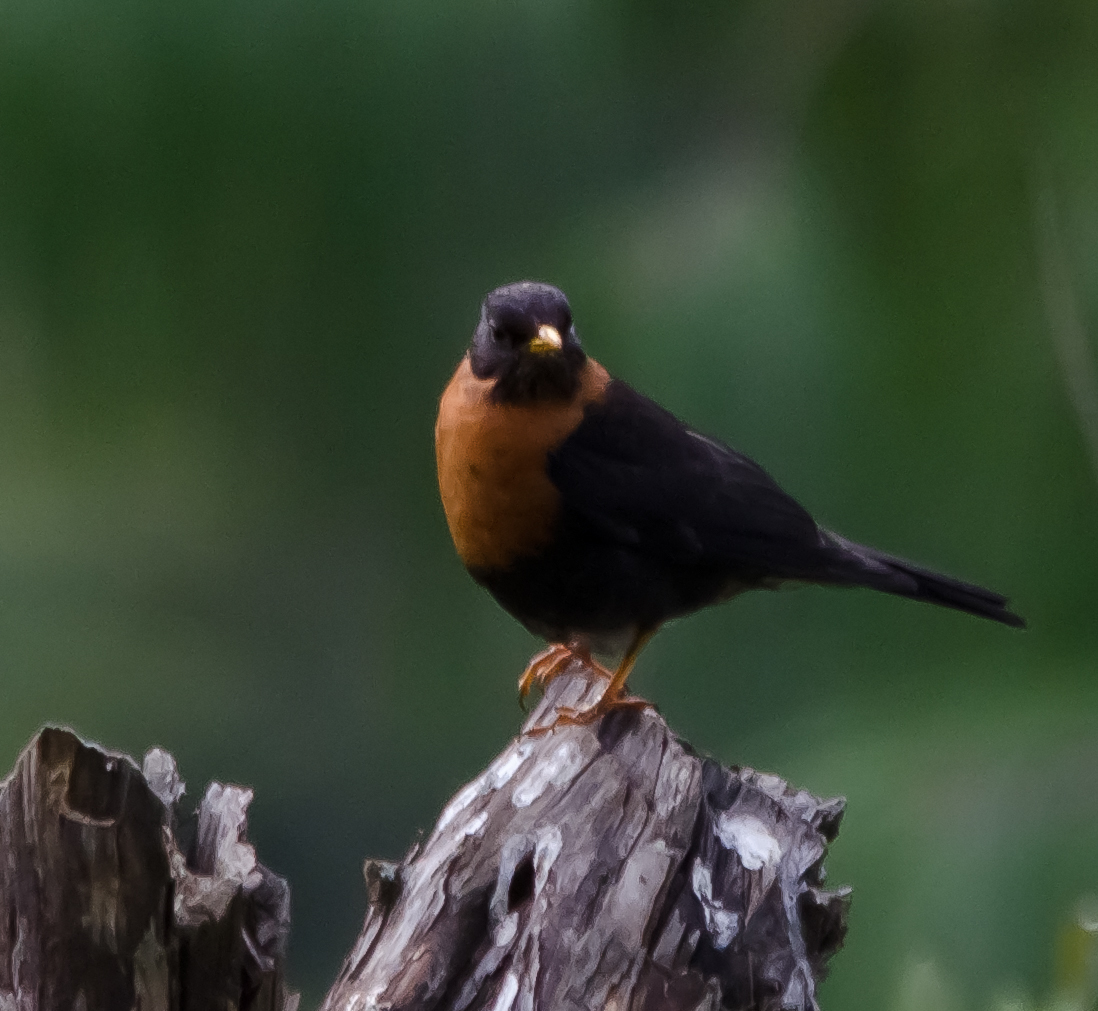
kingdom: Animalia
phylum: Chordata
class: Aves
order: Passeriformes
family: Turdidae
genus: Turdus
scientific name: Turdus rufitorques
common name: Rufous-collared thrush
